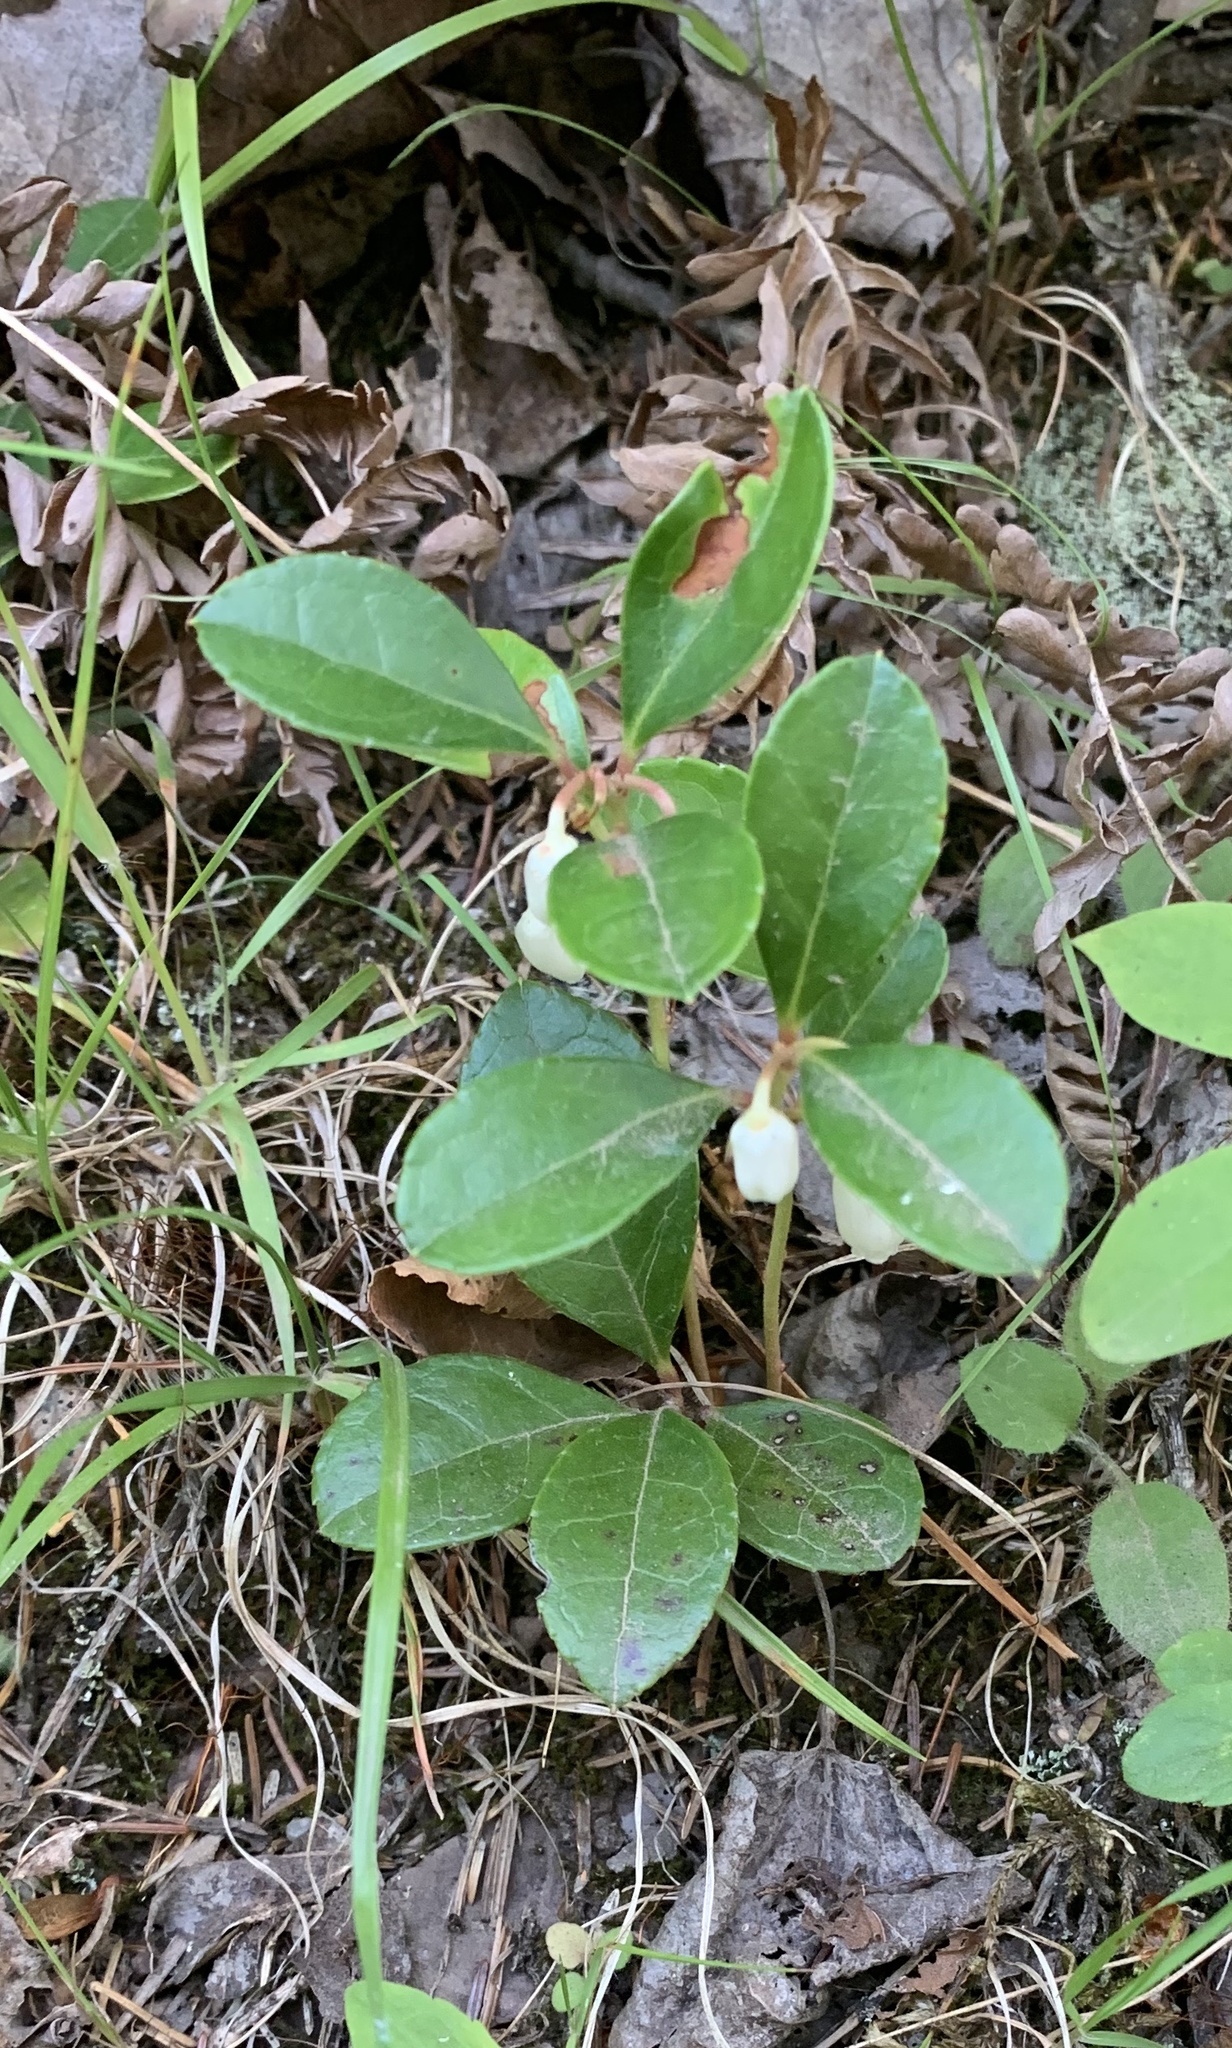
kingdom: Plantae
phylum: Tracheophyta
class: Magnoliopsida
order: Ericales
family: Ericaceae
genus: Gaultheria
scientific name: Gaultheria procumbens
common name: Checkerberry
